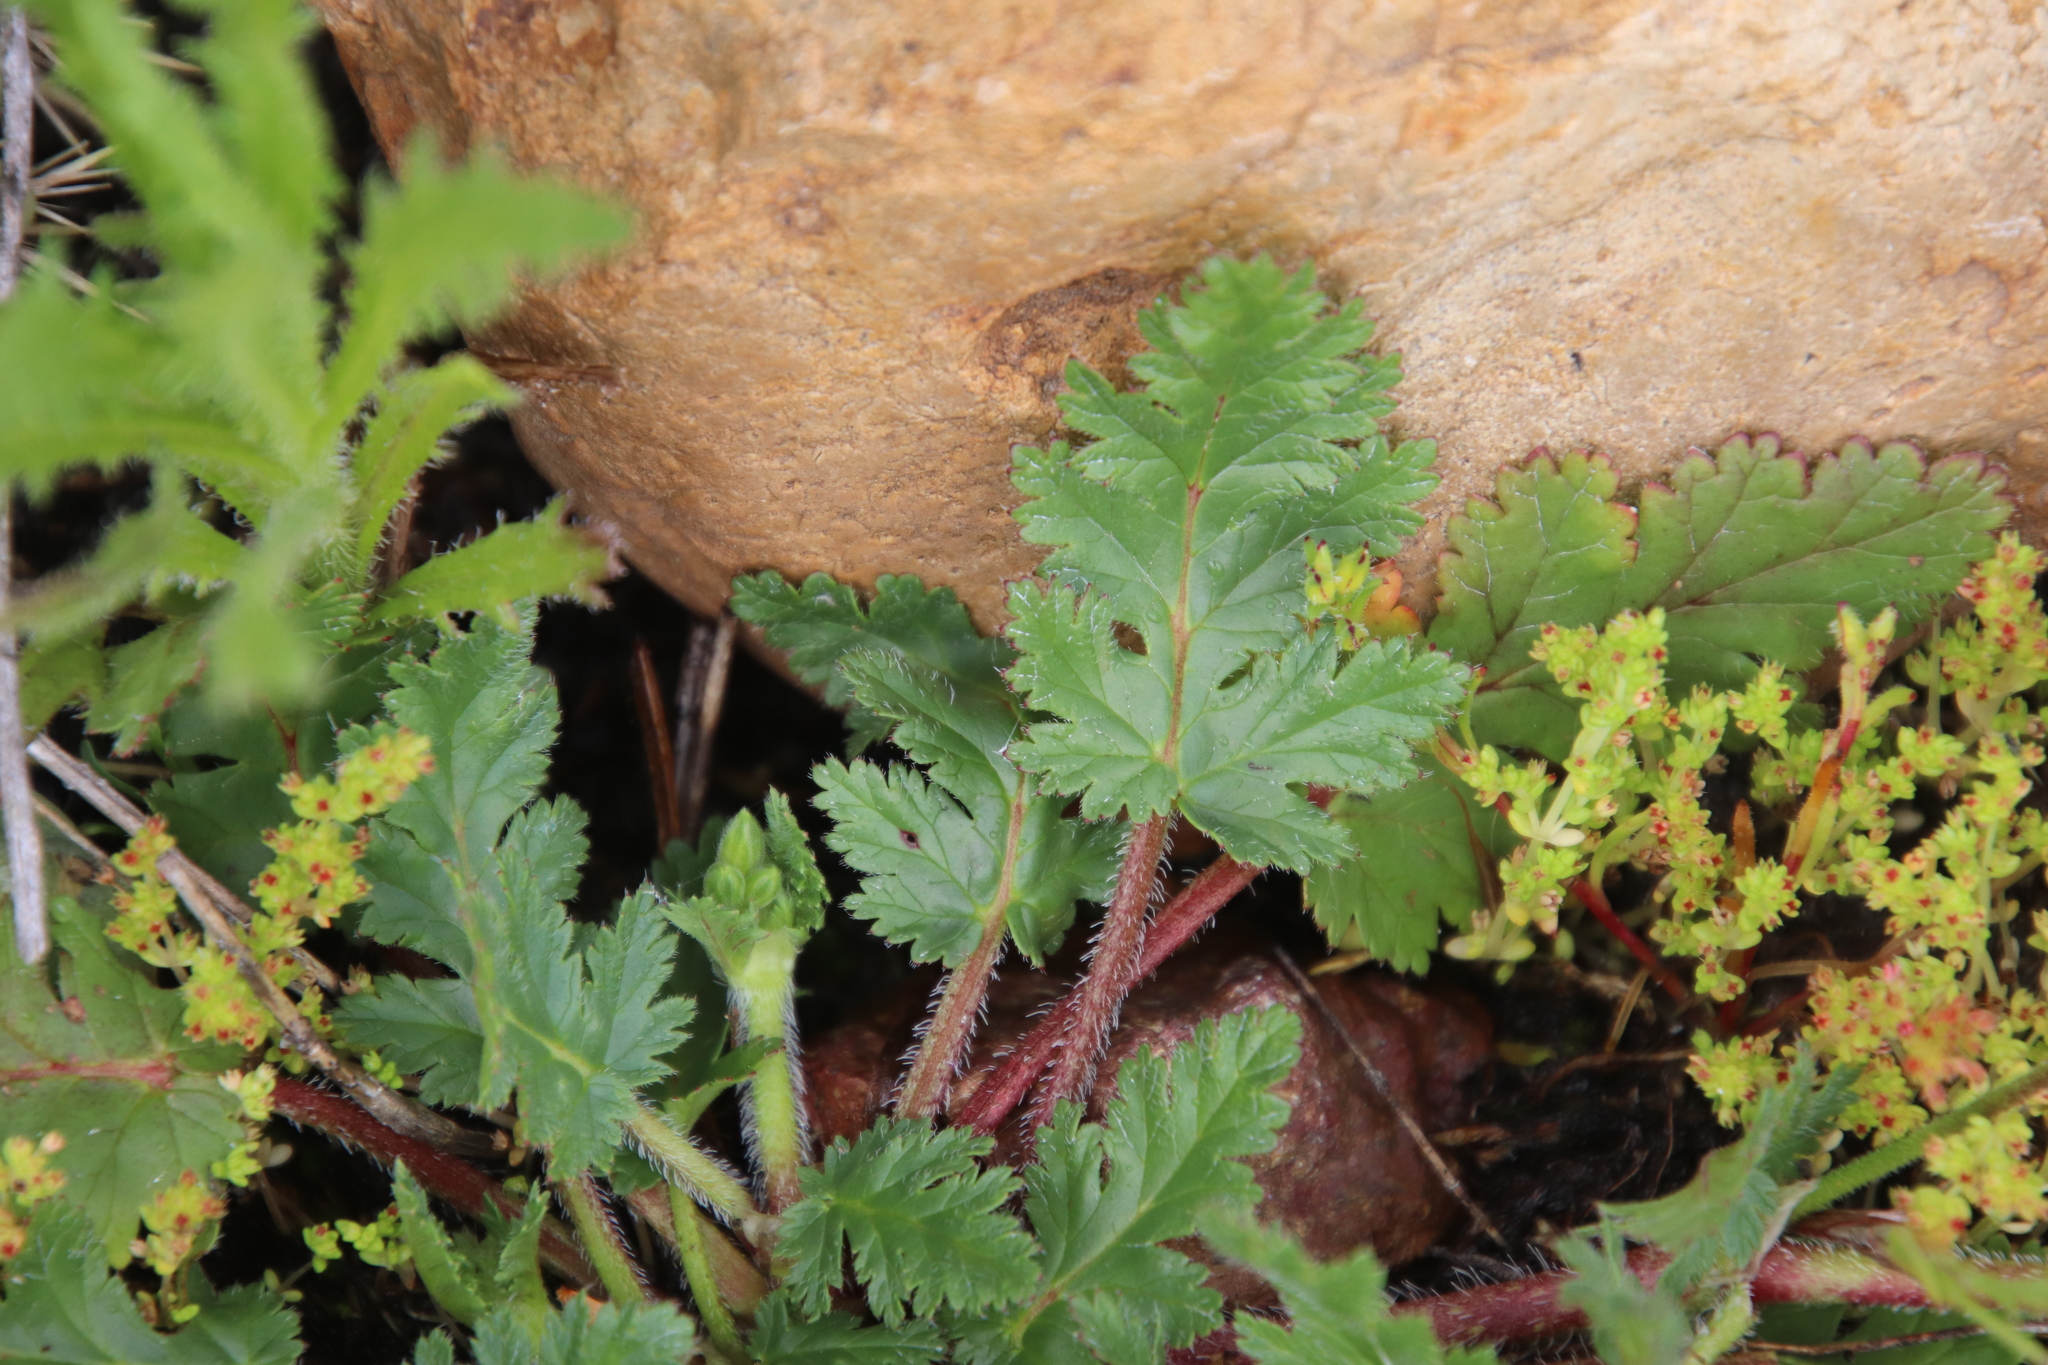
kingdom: Plantae
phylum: Tracheophyta
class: Magnoliopsida
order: Geraniales
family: Geraniaceae
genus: Erodium
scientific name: Erodium brachycarpum
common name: Hairy-pitted stork's-bill
